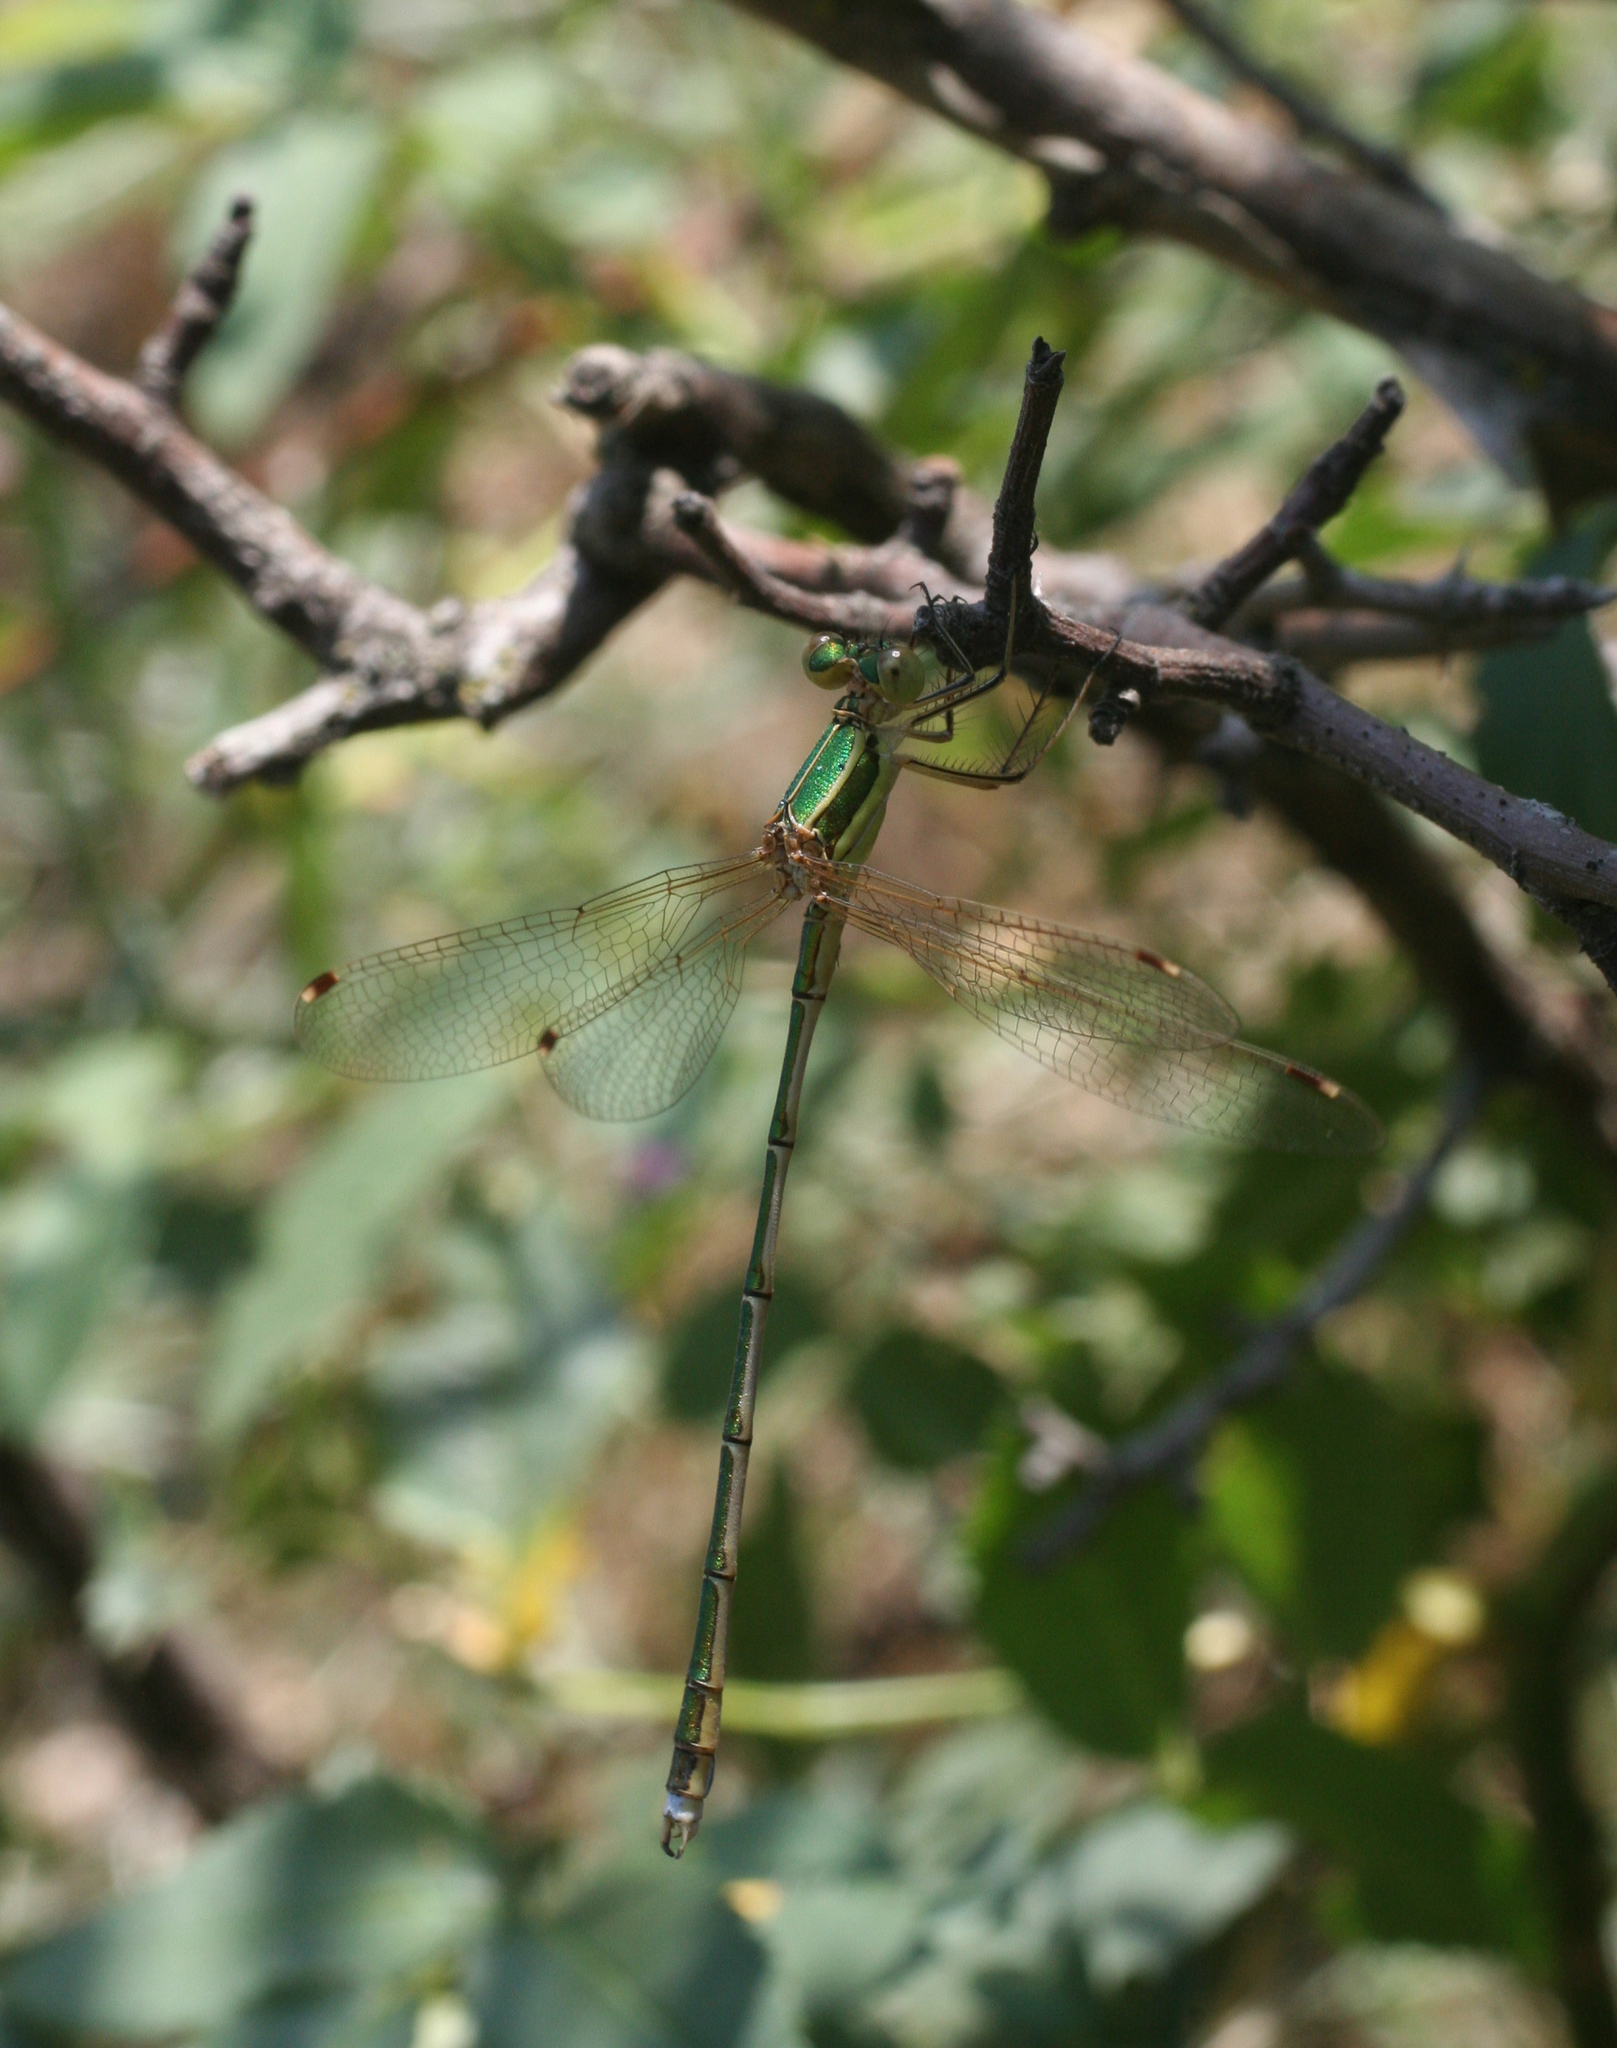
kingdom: Animalia
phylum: Arthropoda
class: Insecta
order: Odonata
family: Lestidae
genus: Lestes
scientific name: Lestes barbarus
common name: Migrant spreadwing
